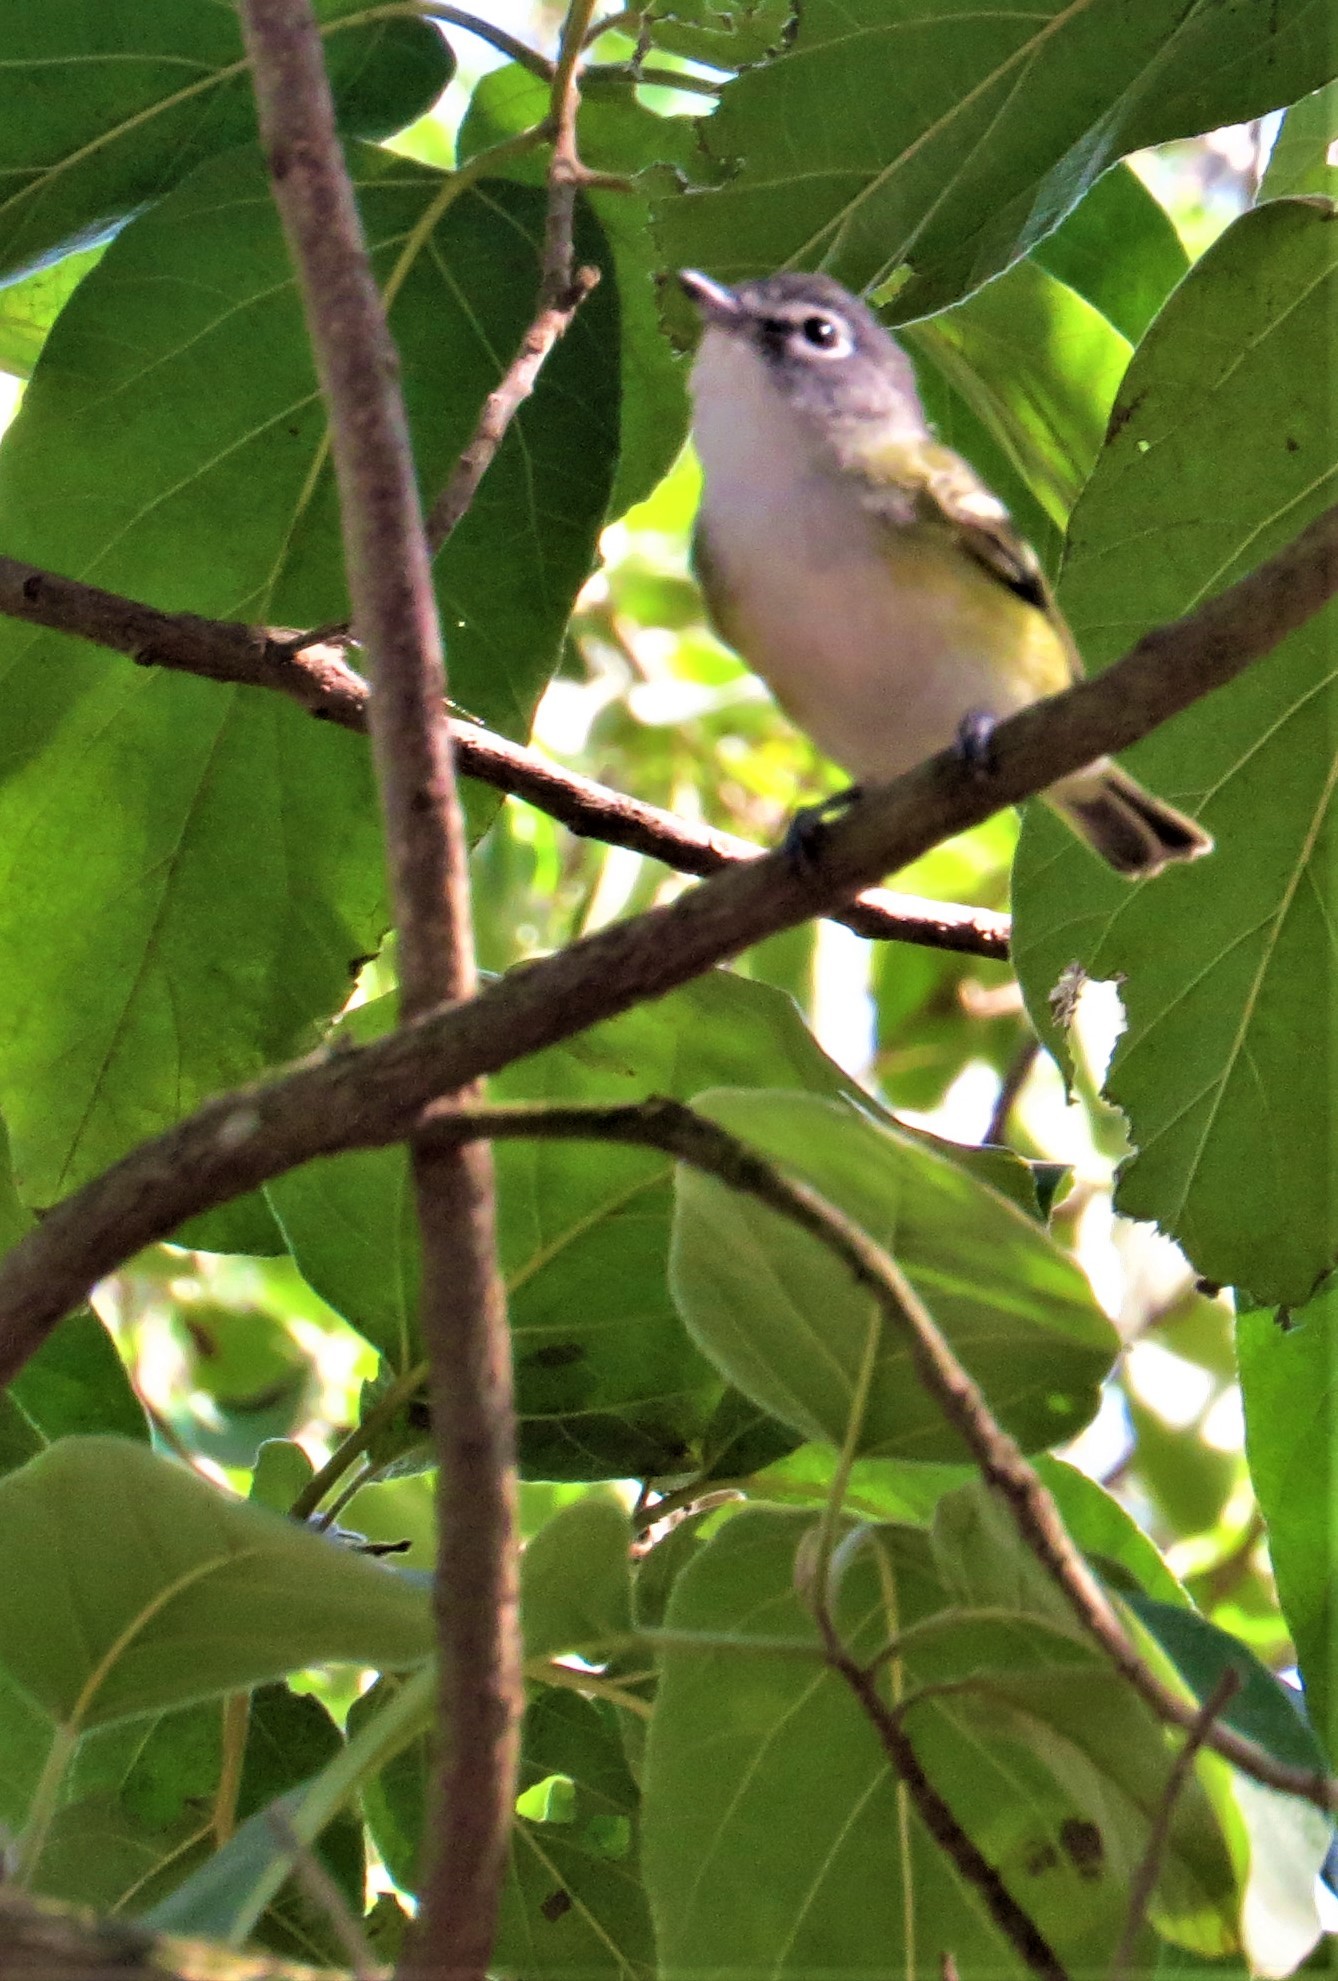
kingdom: Animalia
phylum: Chordata
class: Aves
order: Passeriformes
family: Vireonidae
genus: Vireo
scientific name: Vireo solitarius
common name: Blue-headed vireo
